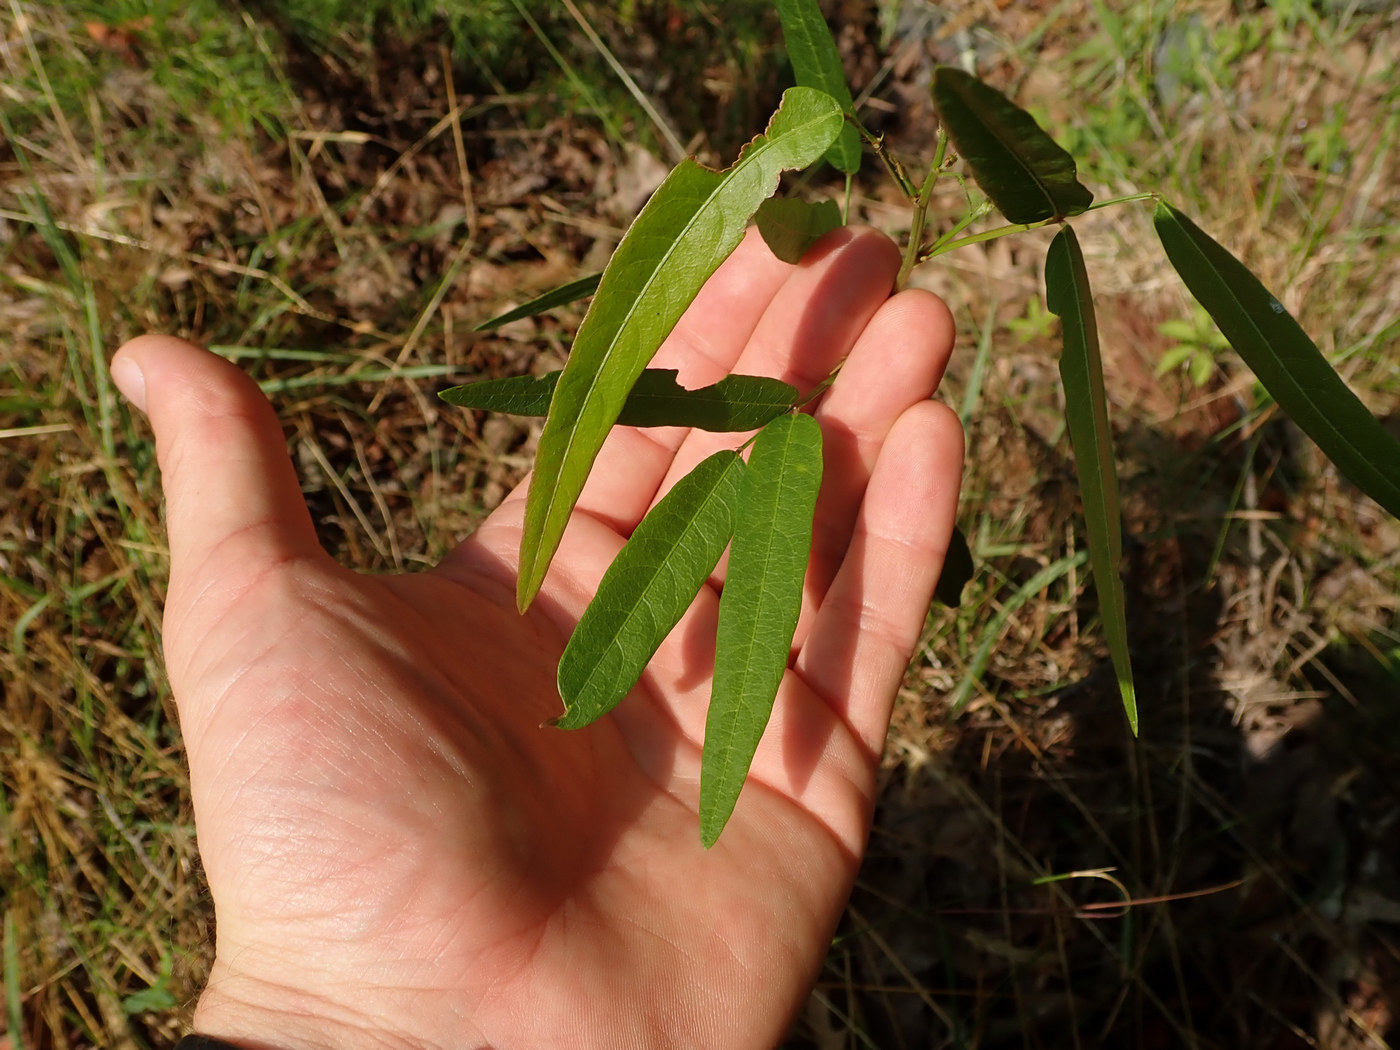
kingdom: Plantae
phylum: Tracheophyta
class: Magnoliopsida
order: Fabales
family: Fabaceae
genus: Desmodium
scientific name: Desmodium paniculatum
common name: Panicled tick-clover
